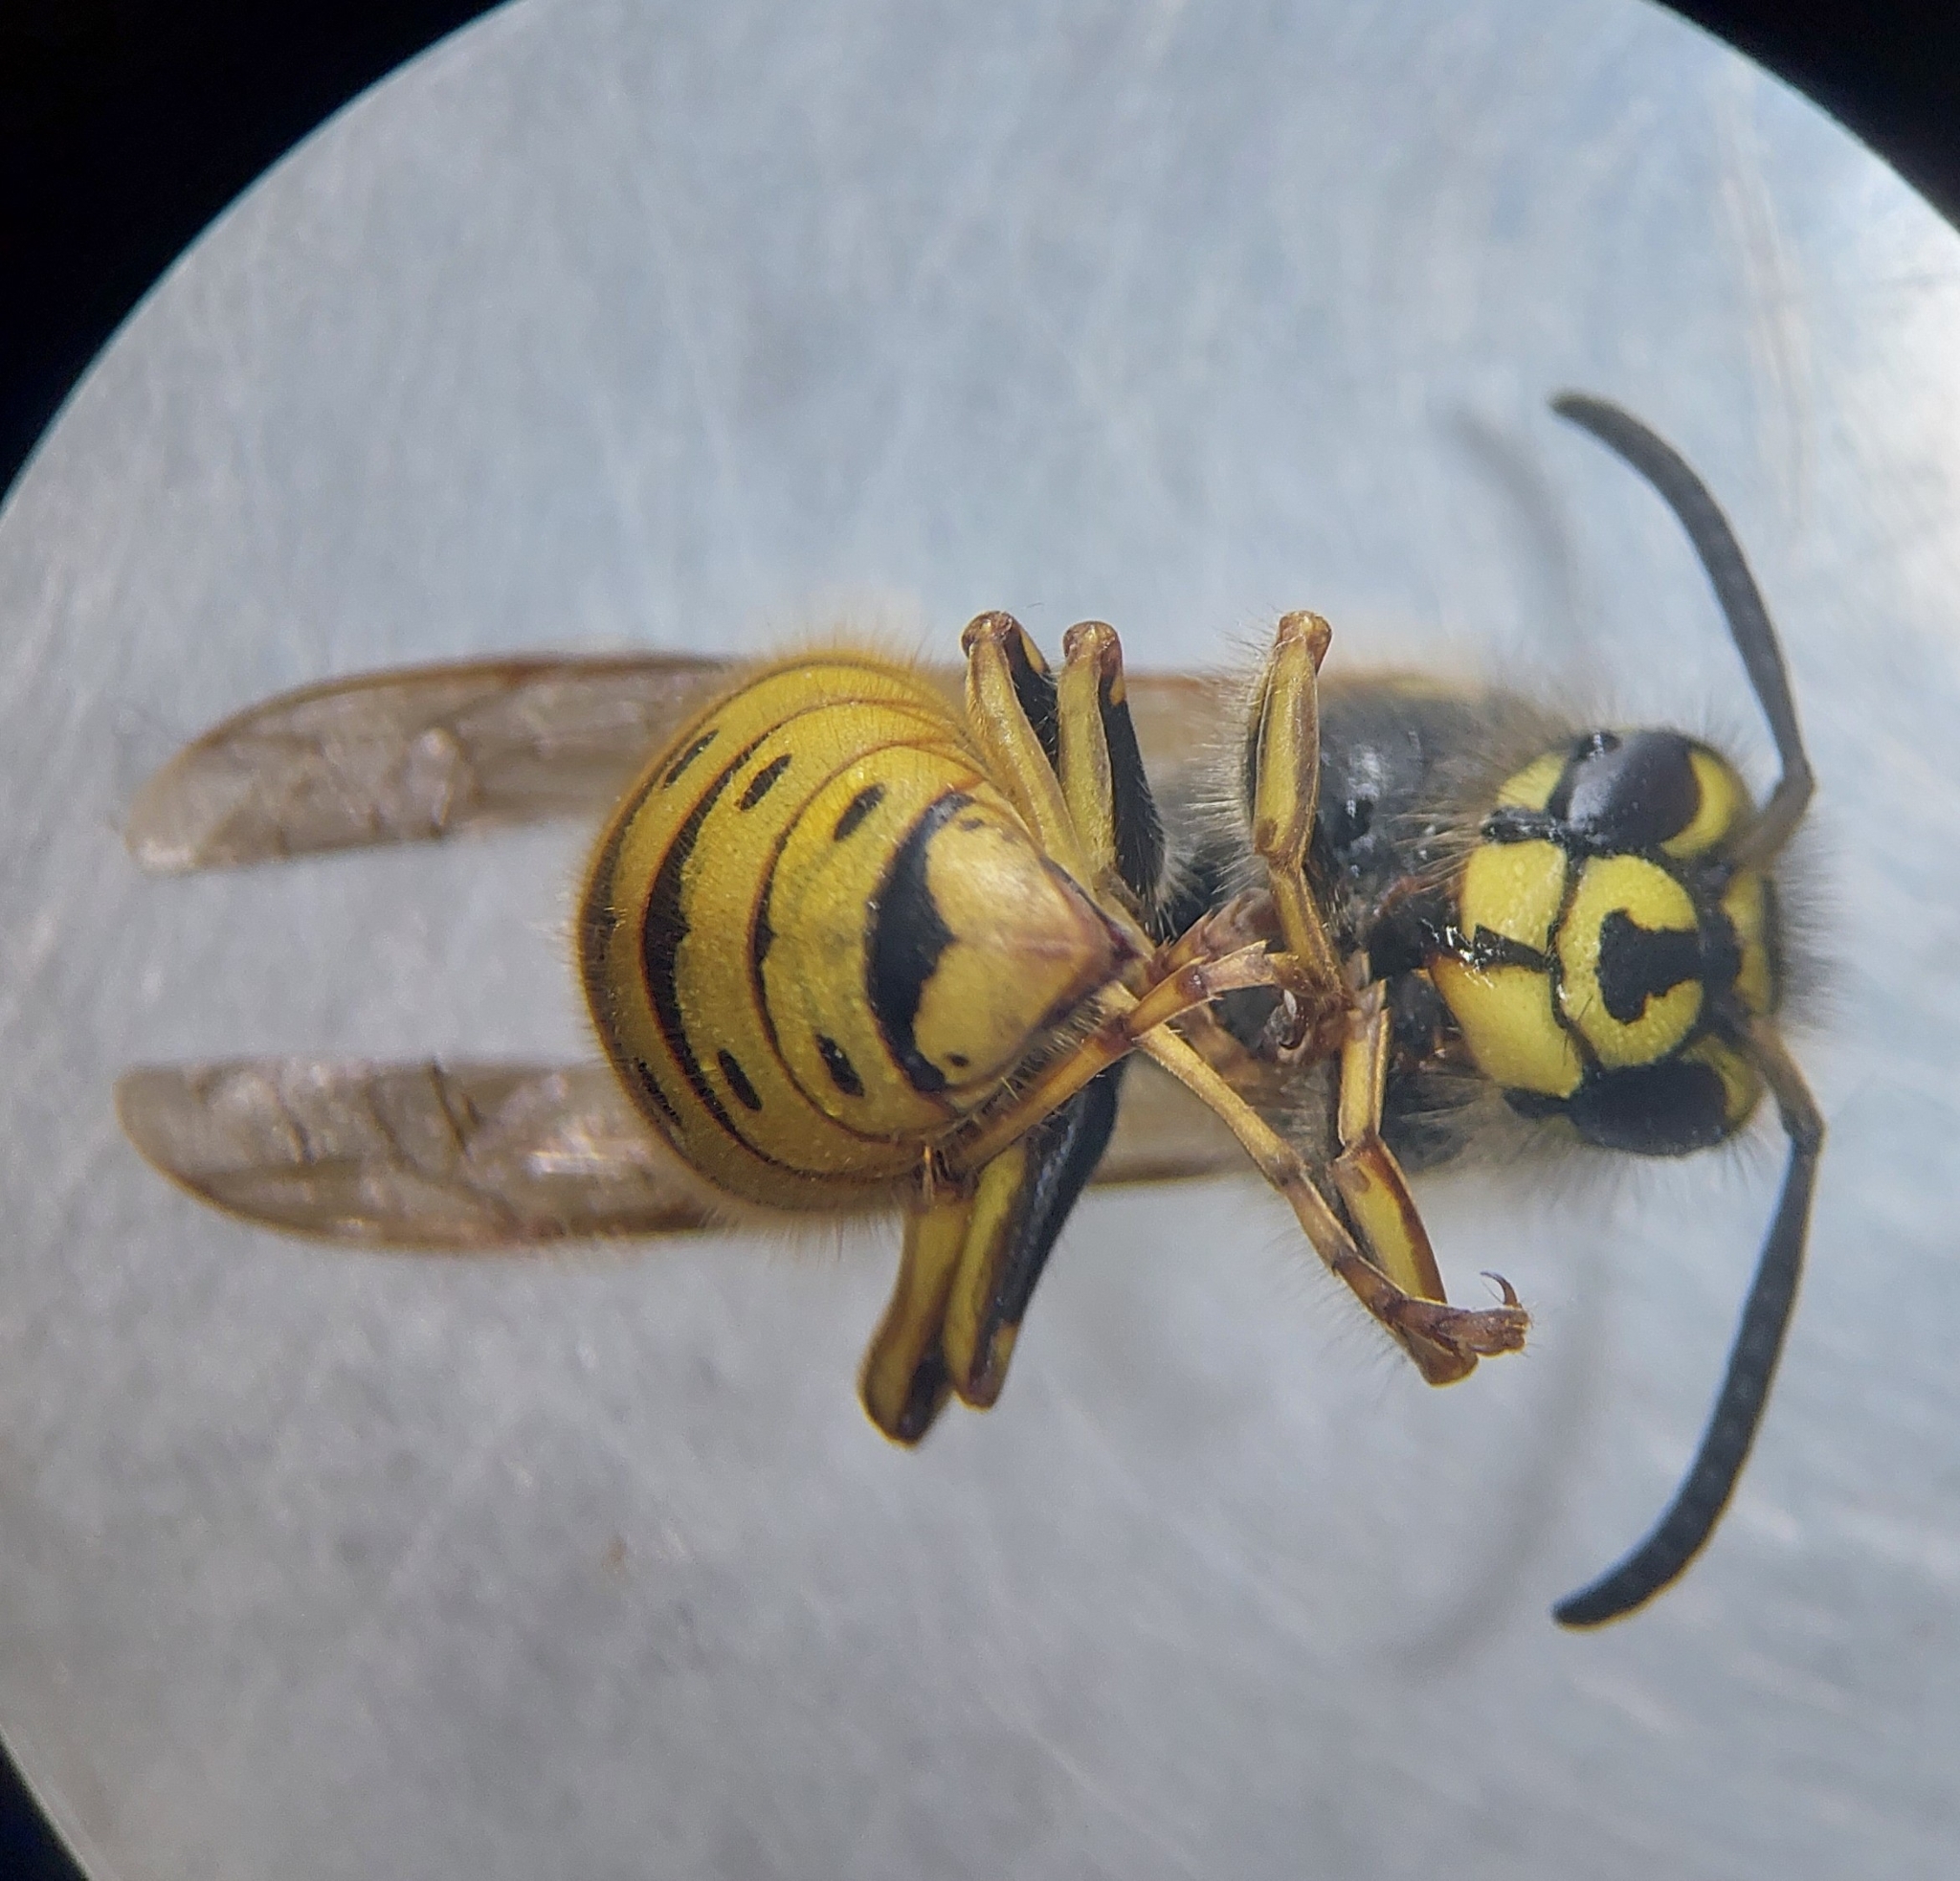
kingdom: Animalia
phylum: Arthropoda
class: Insecta
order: Hymenoptera
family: Vespidae
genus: Vespula
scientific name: Vespula vulgaris
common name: Common wasp
